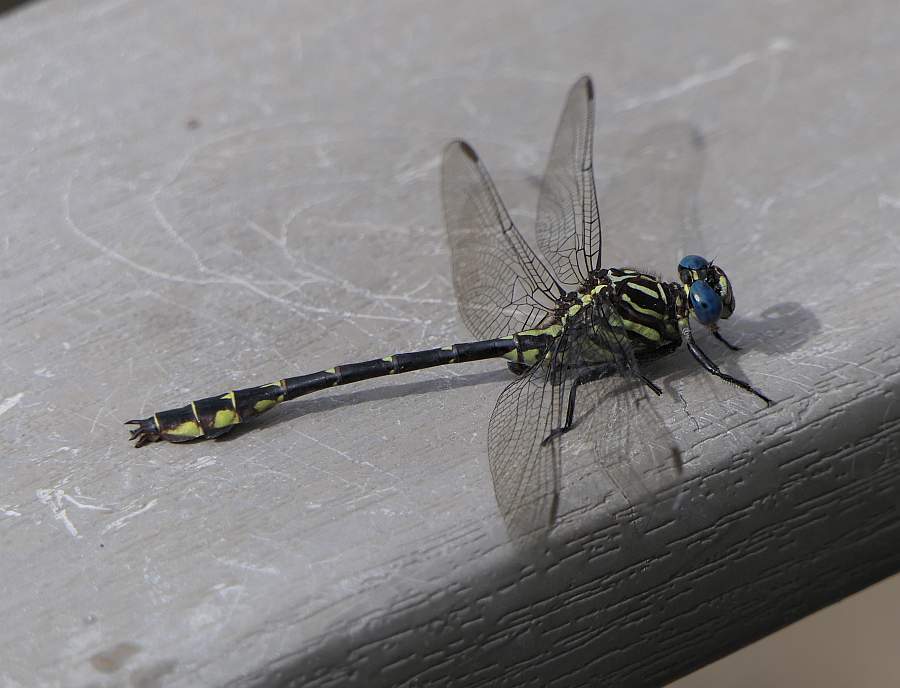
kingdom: Animalia
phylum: Arthropoda
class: Insecta
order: Odonata
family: Gomphidae
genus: Stylurus
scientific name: Stylurus notatus
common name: Elusive clubtail
